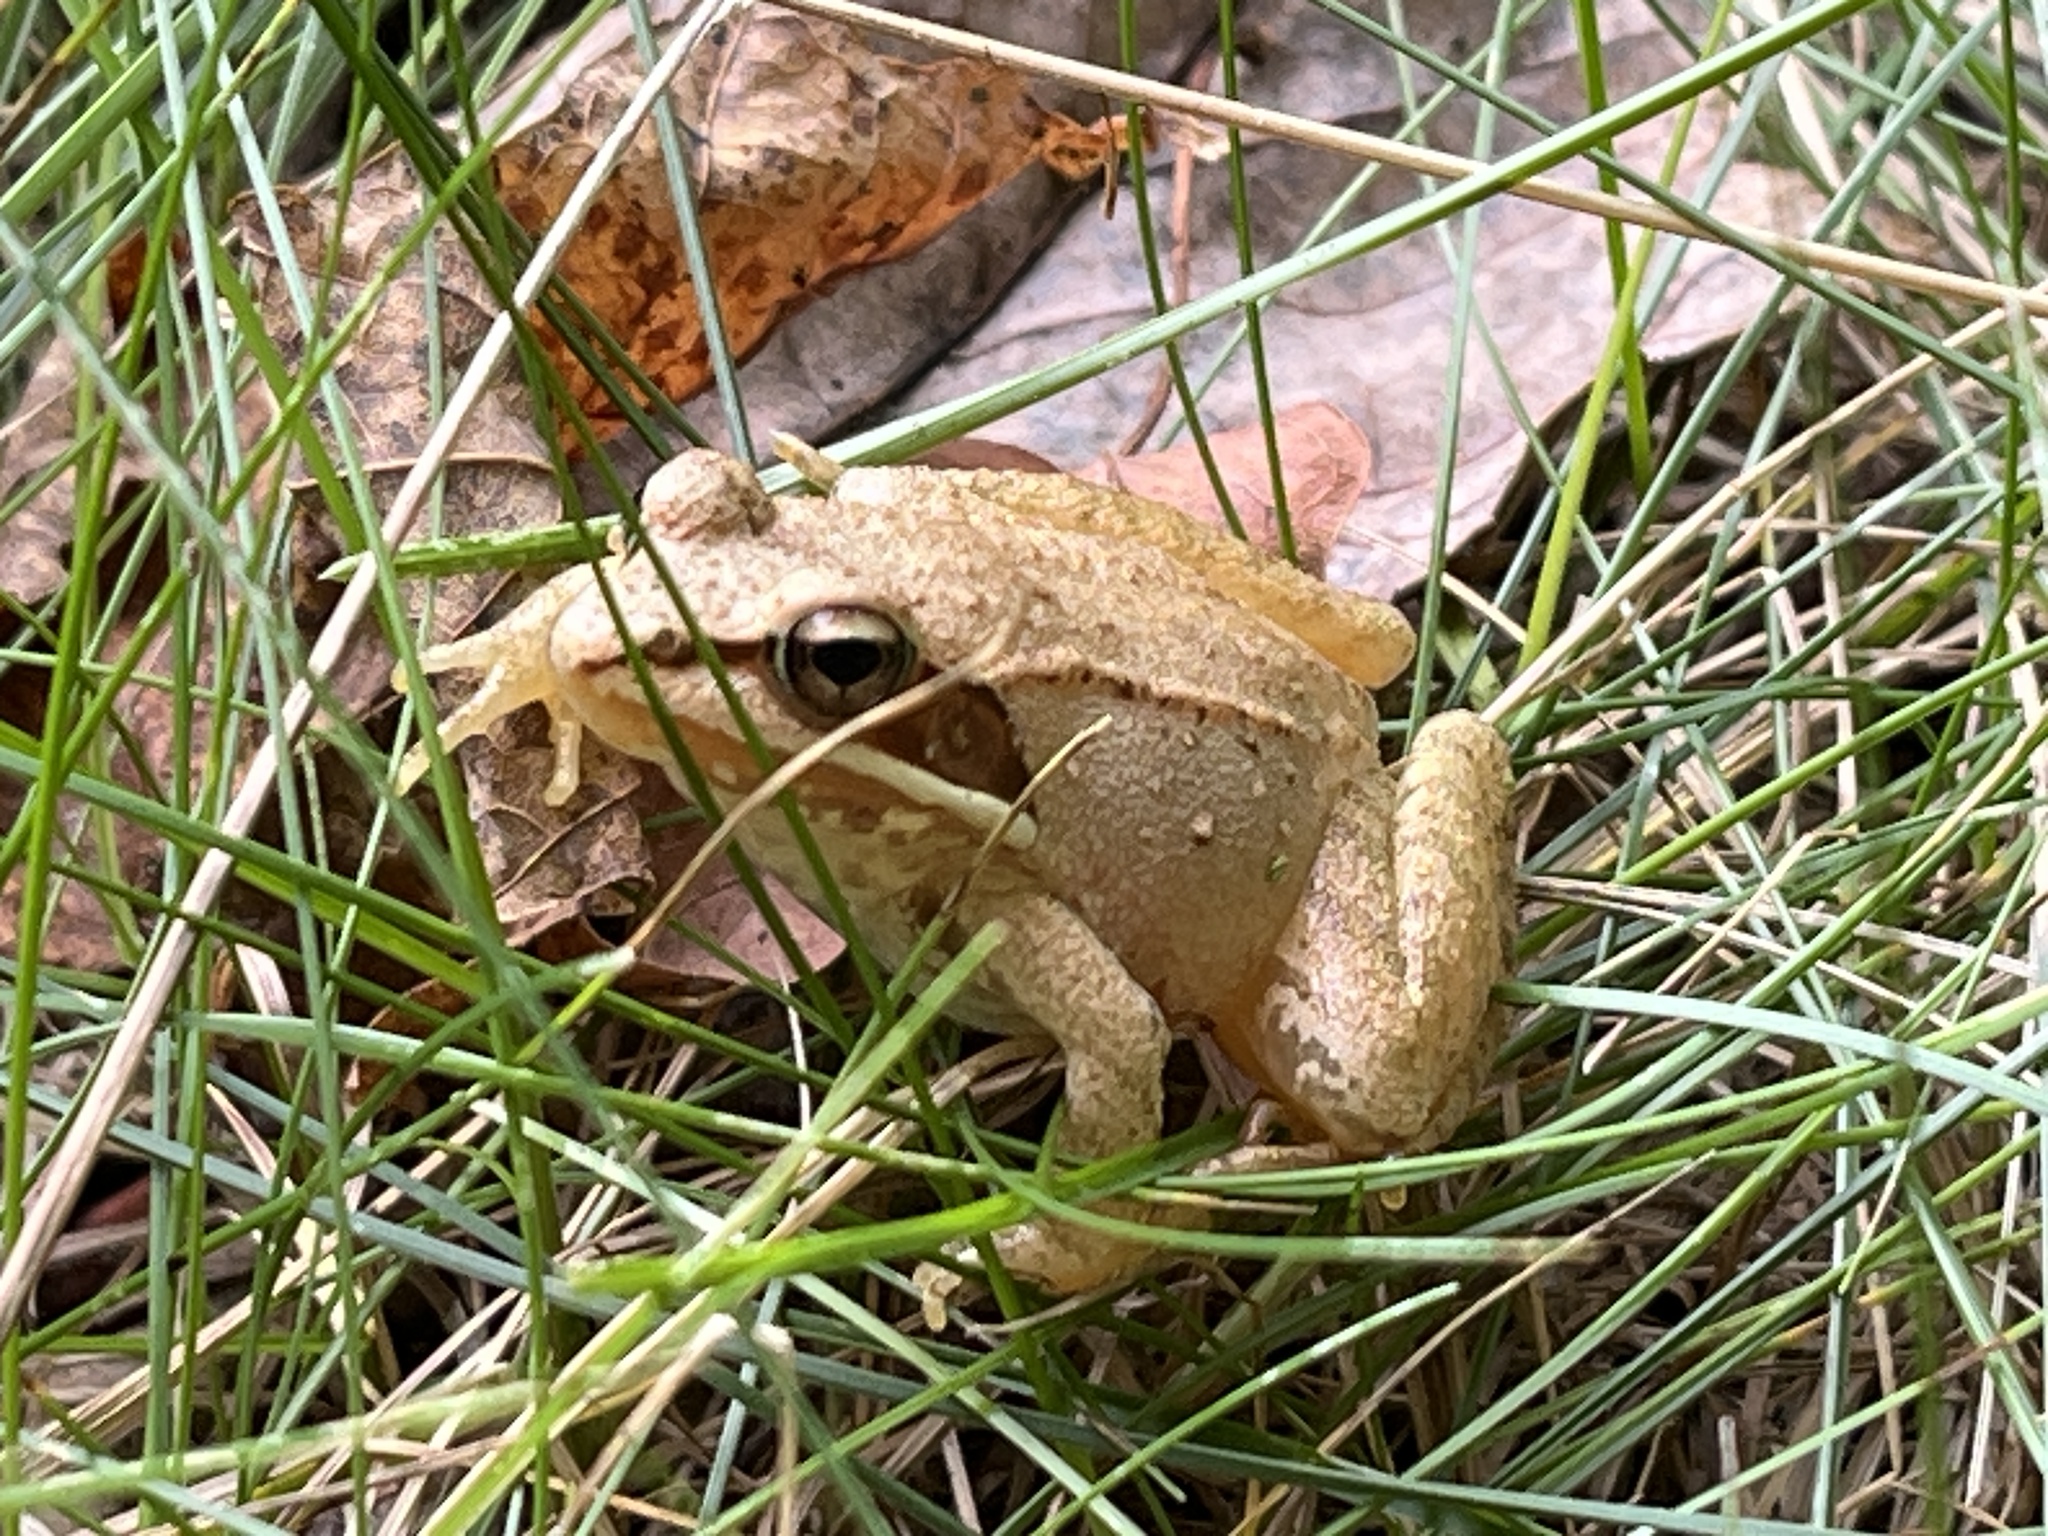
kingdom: Animalia
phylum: Chordata
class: Amphibia
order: Anura
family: Ranidae
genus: Lithobates
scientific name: Lithobates sylvaticus
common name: Wood frog
